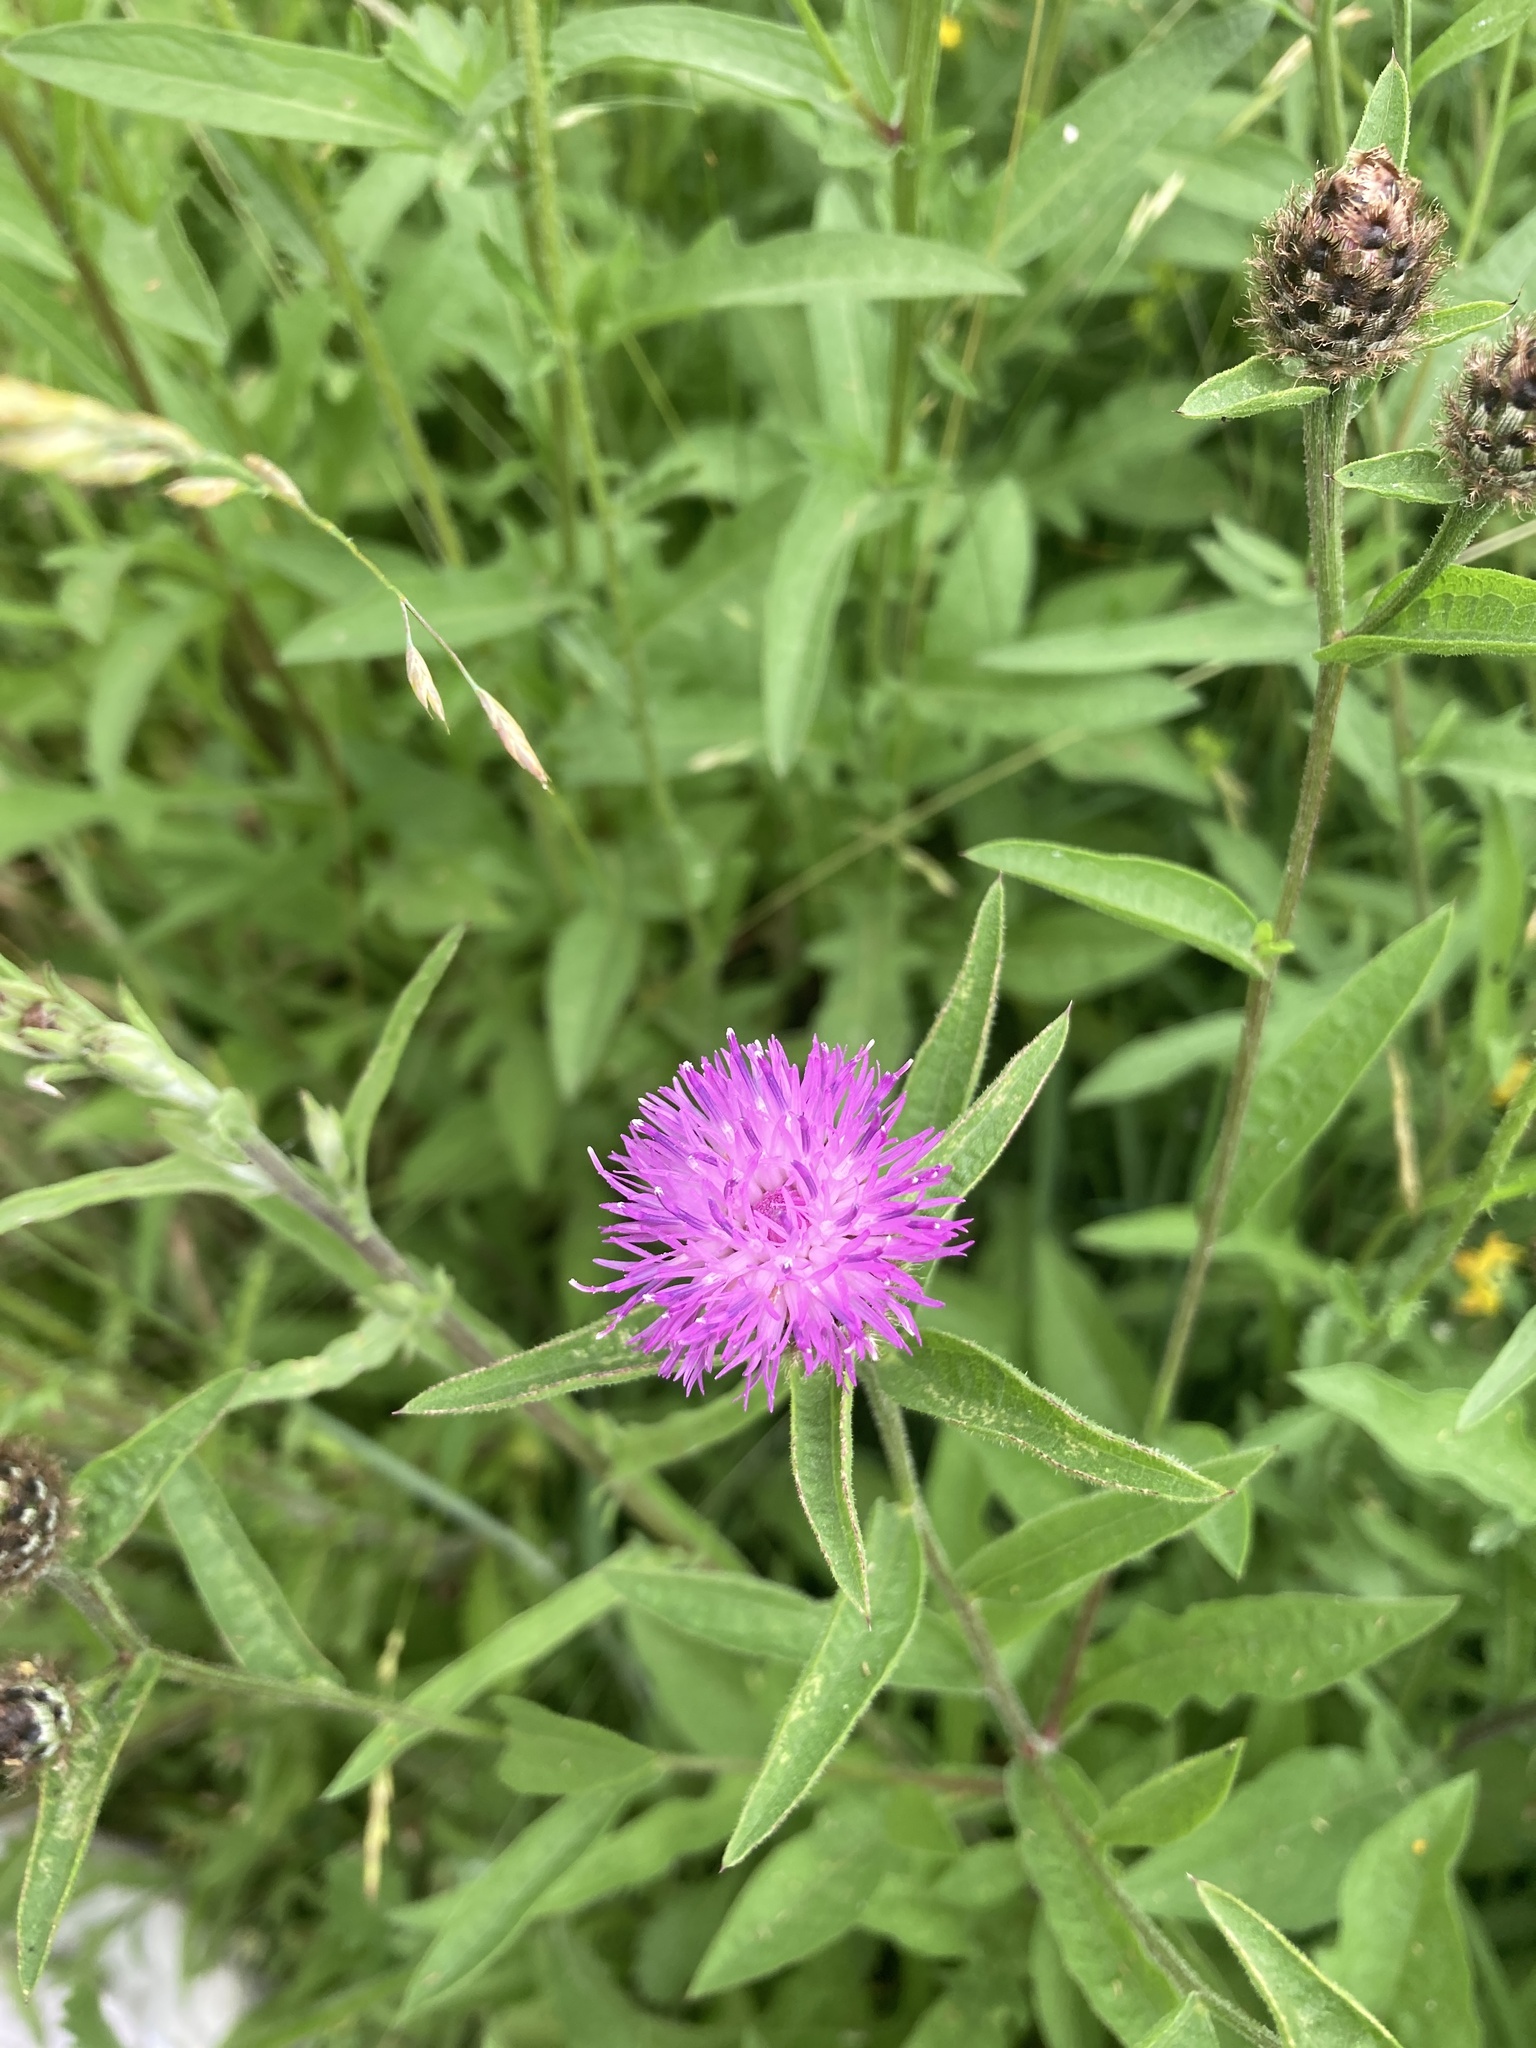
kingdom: Plantae
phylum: Tracheophyta
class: Magnoliopsida
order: Asterales
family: Asteraceae
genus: Centaurea
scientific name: Centaurea nigra
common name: Lesser knapweed
